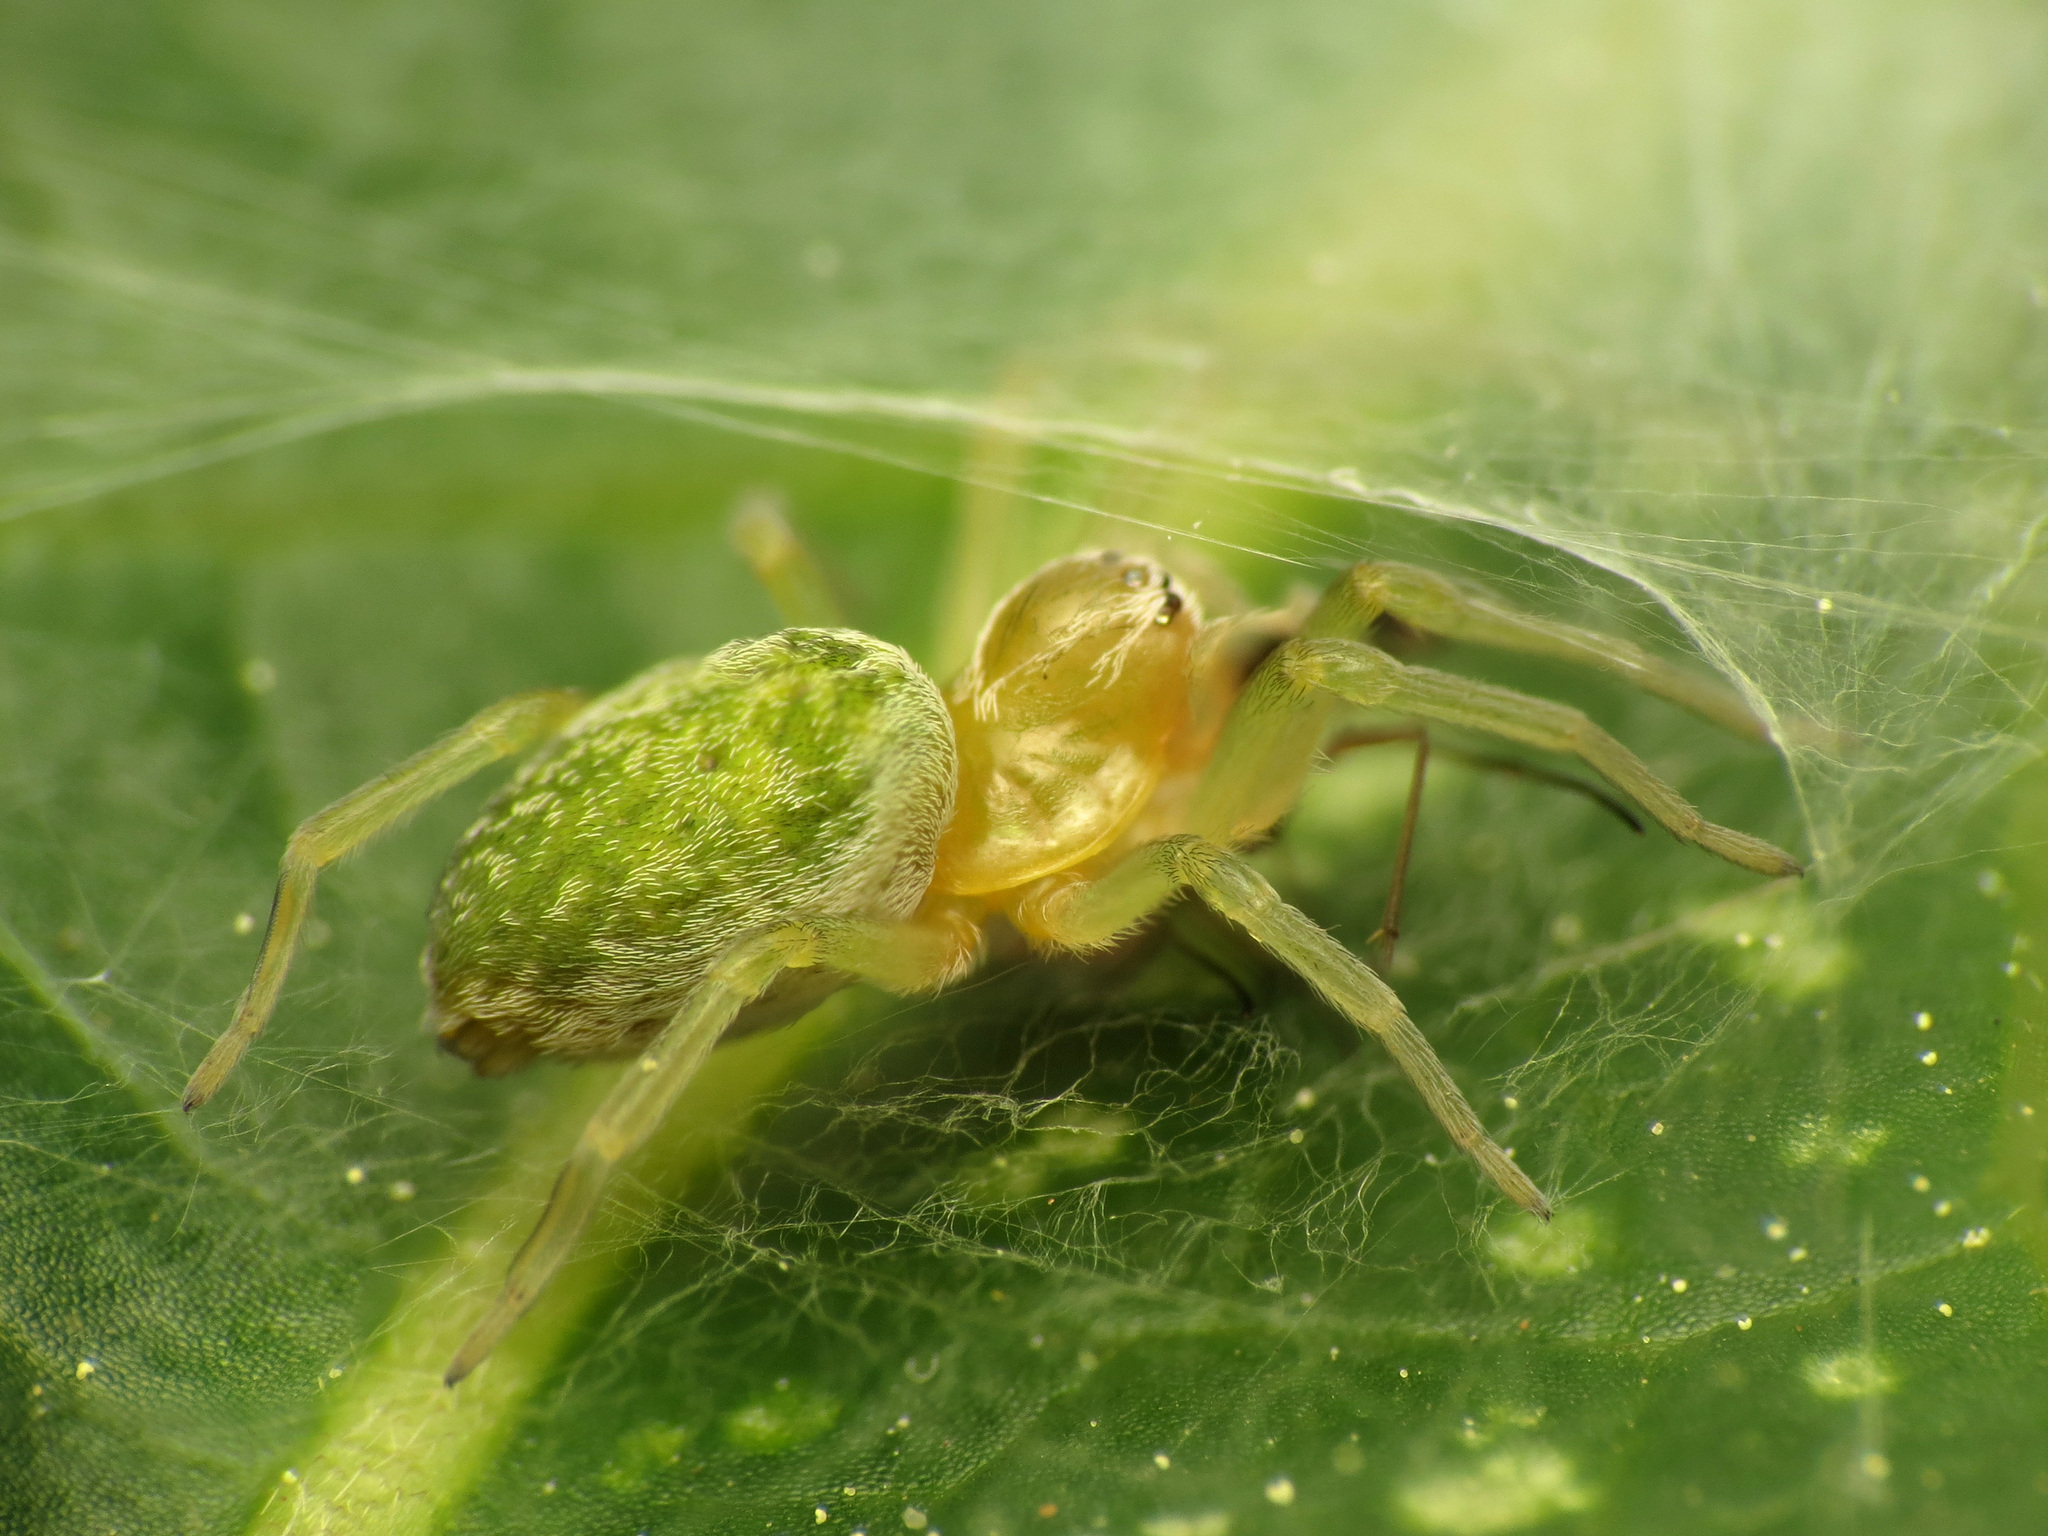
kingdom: Animalia
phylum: Arthropoda
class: Arachnida
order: Araneae
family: Dictynidae
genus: Nigma
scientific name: Nigma walckenaeri
